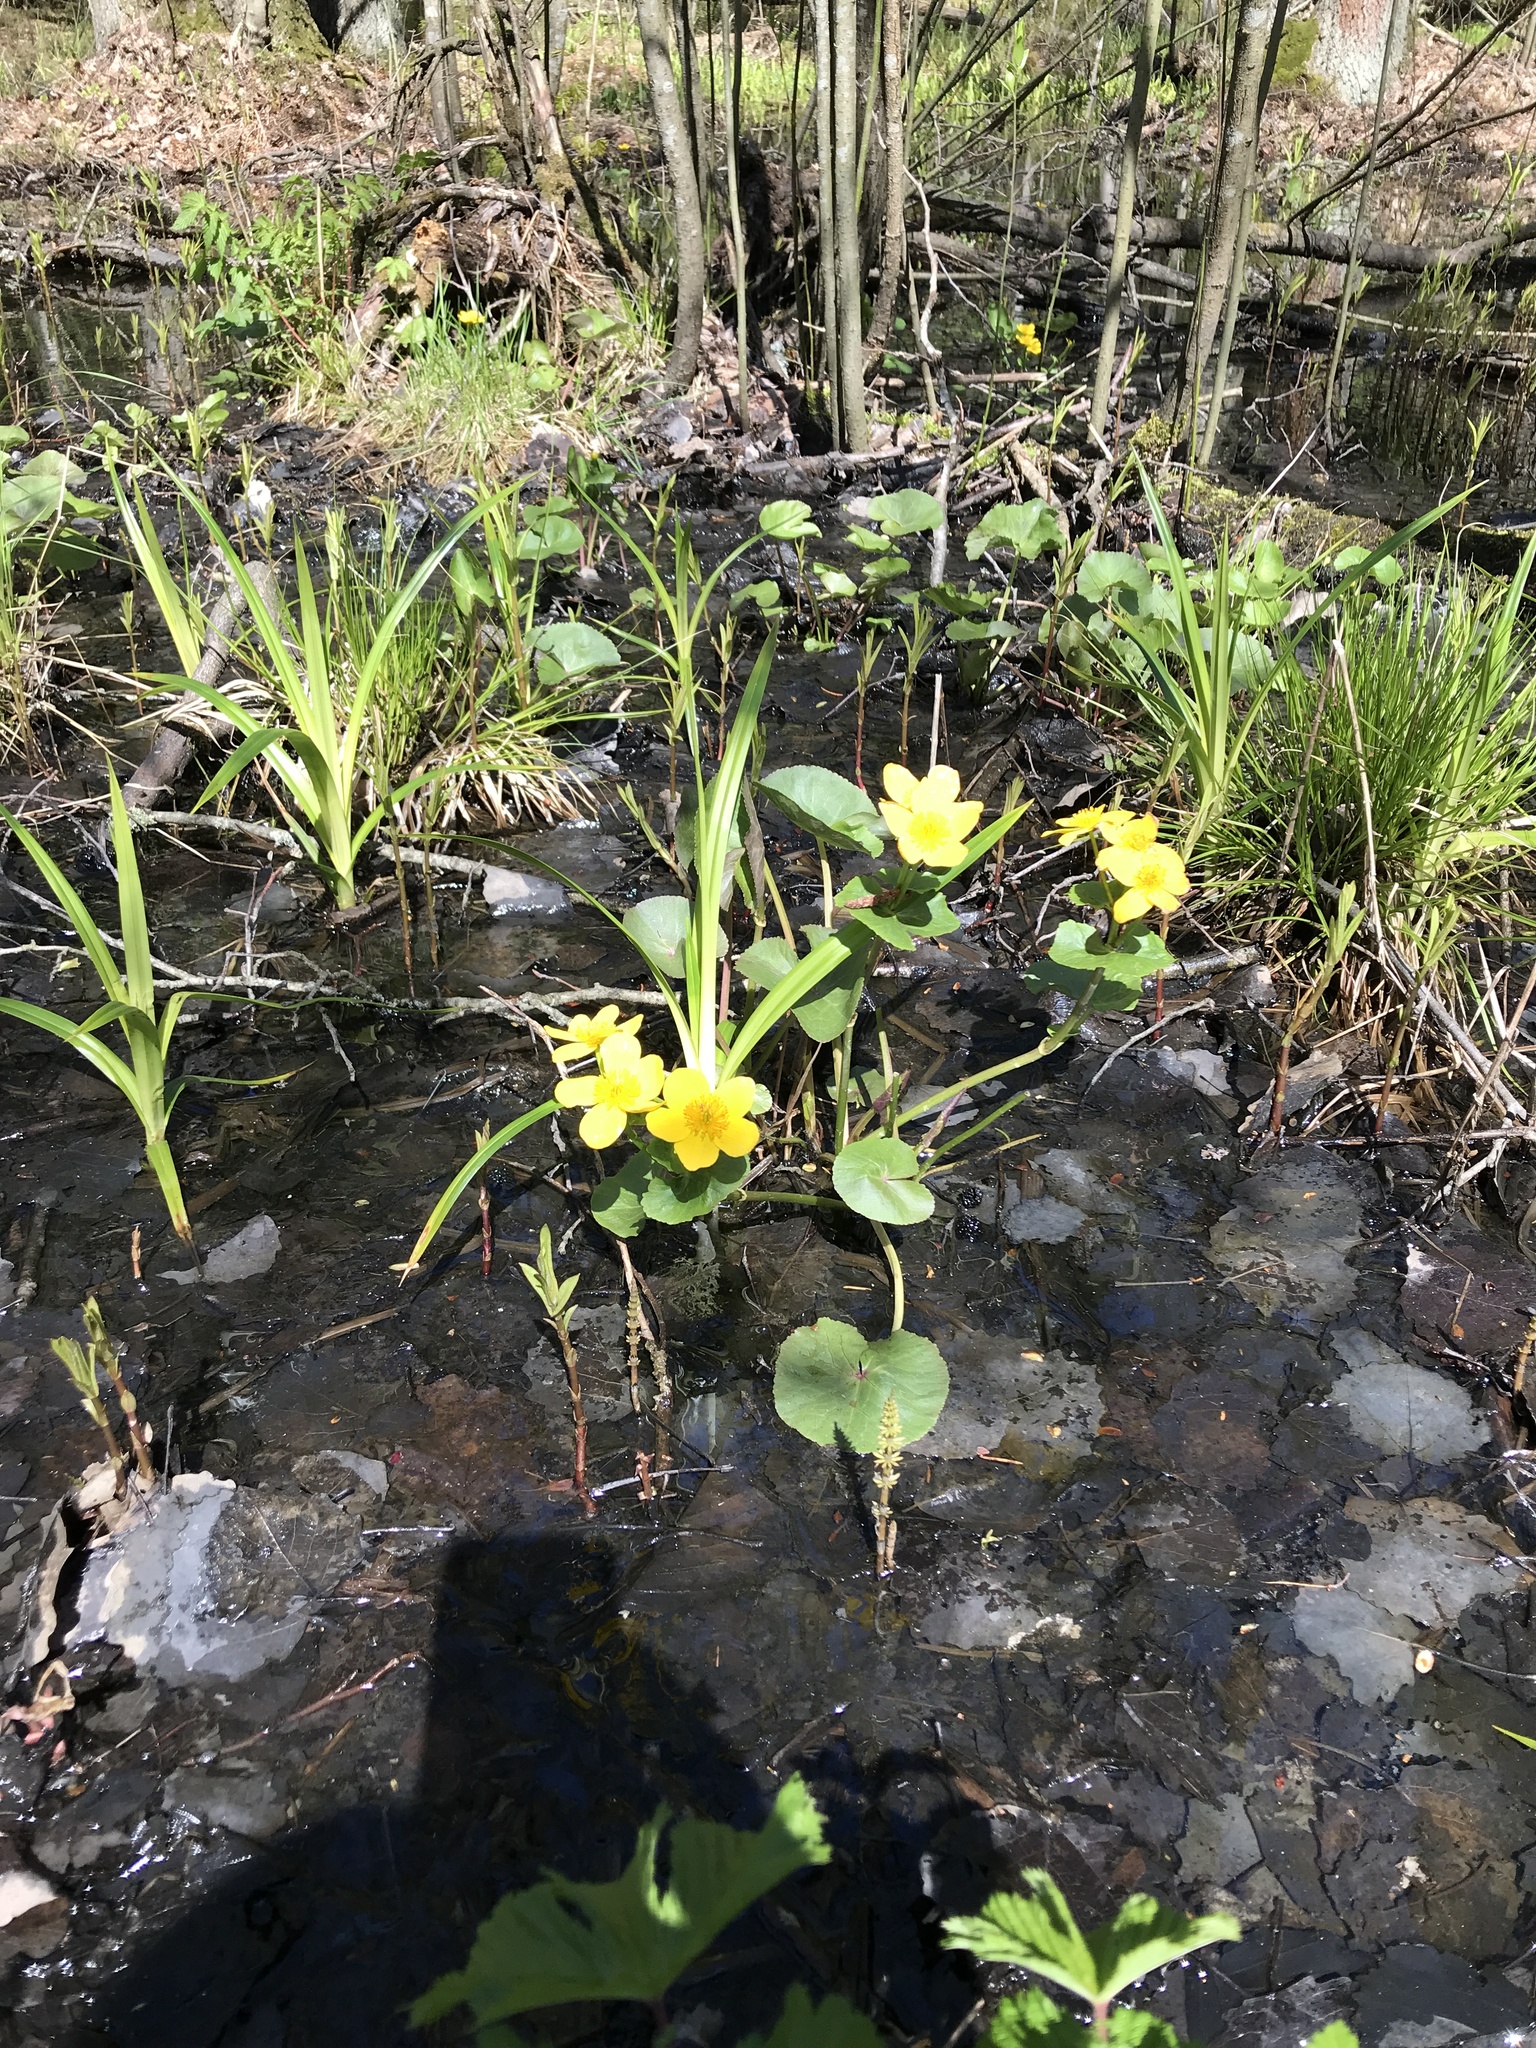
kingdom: Plantae
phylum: Tracheophyta
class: Magnoliopsida
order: Ranunculales
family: Ranunculaceae
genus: Caltha
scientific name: Caltha palustris
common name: Marsh marigold
